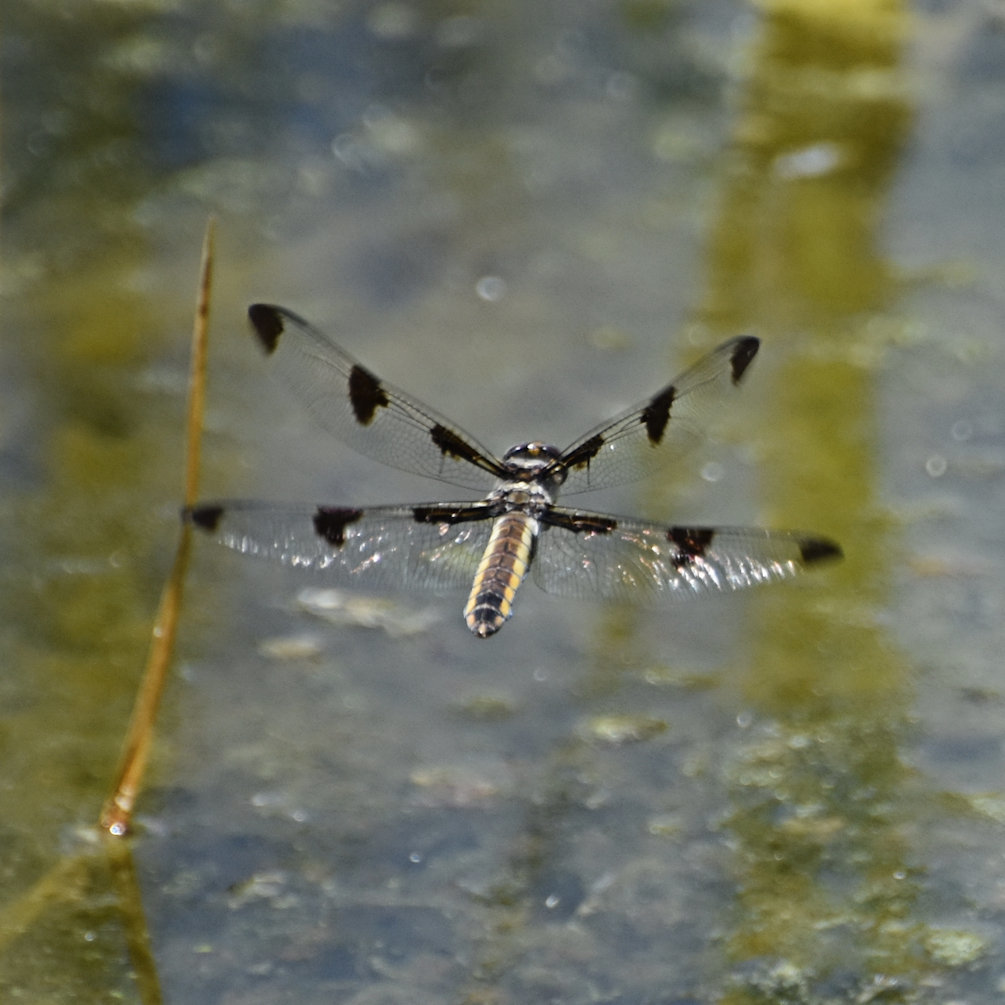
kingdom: Animalia
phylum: Arthropoda
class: Insecta
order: Odonata
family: Libellulidae
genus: Libellula
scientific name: Libellula pulchella
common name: Twelve-spotted skimmer
